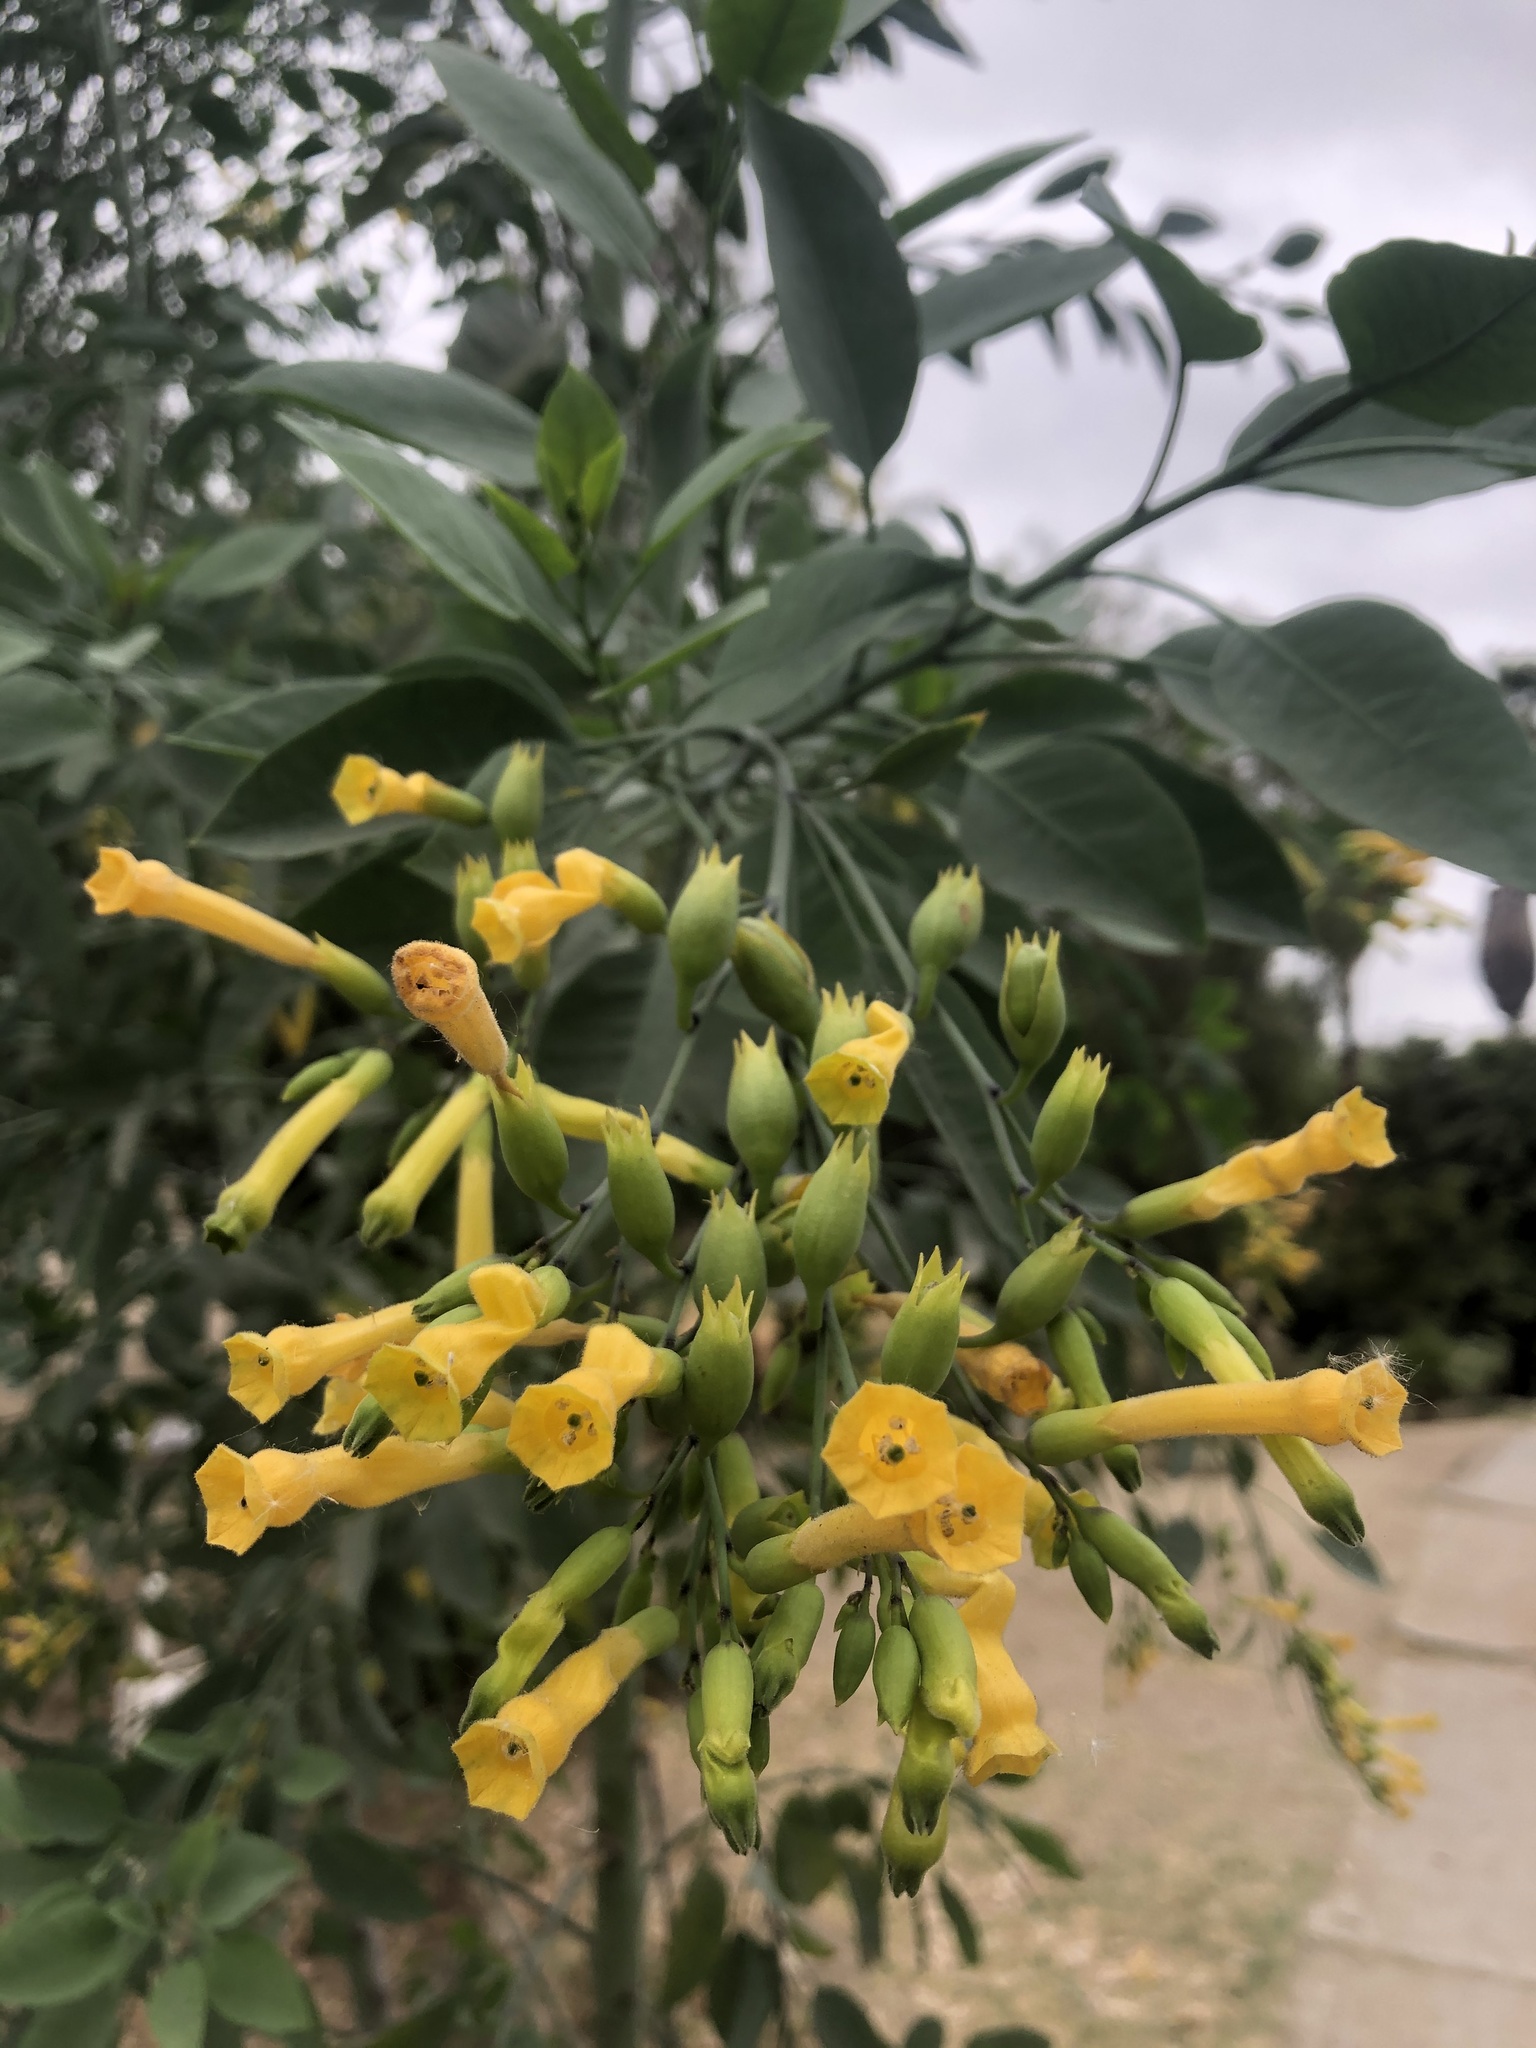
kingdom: Plantae
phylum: Tracheophyta
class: Magnoliopsida
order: Solanales
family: Solanaceae
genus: Nicotiana
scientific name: Nicotiana glauca
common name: Tree tobacco
